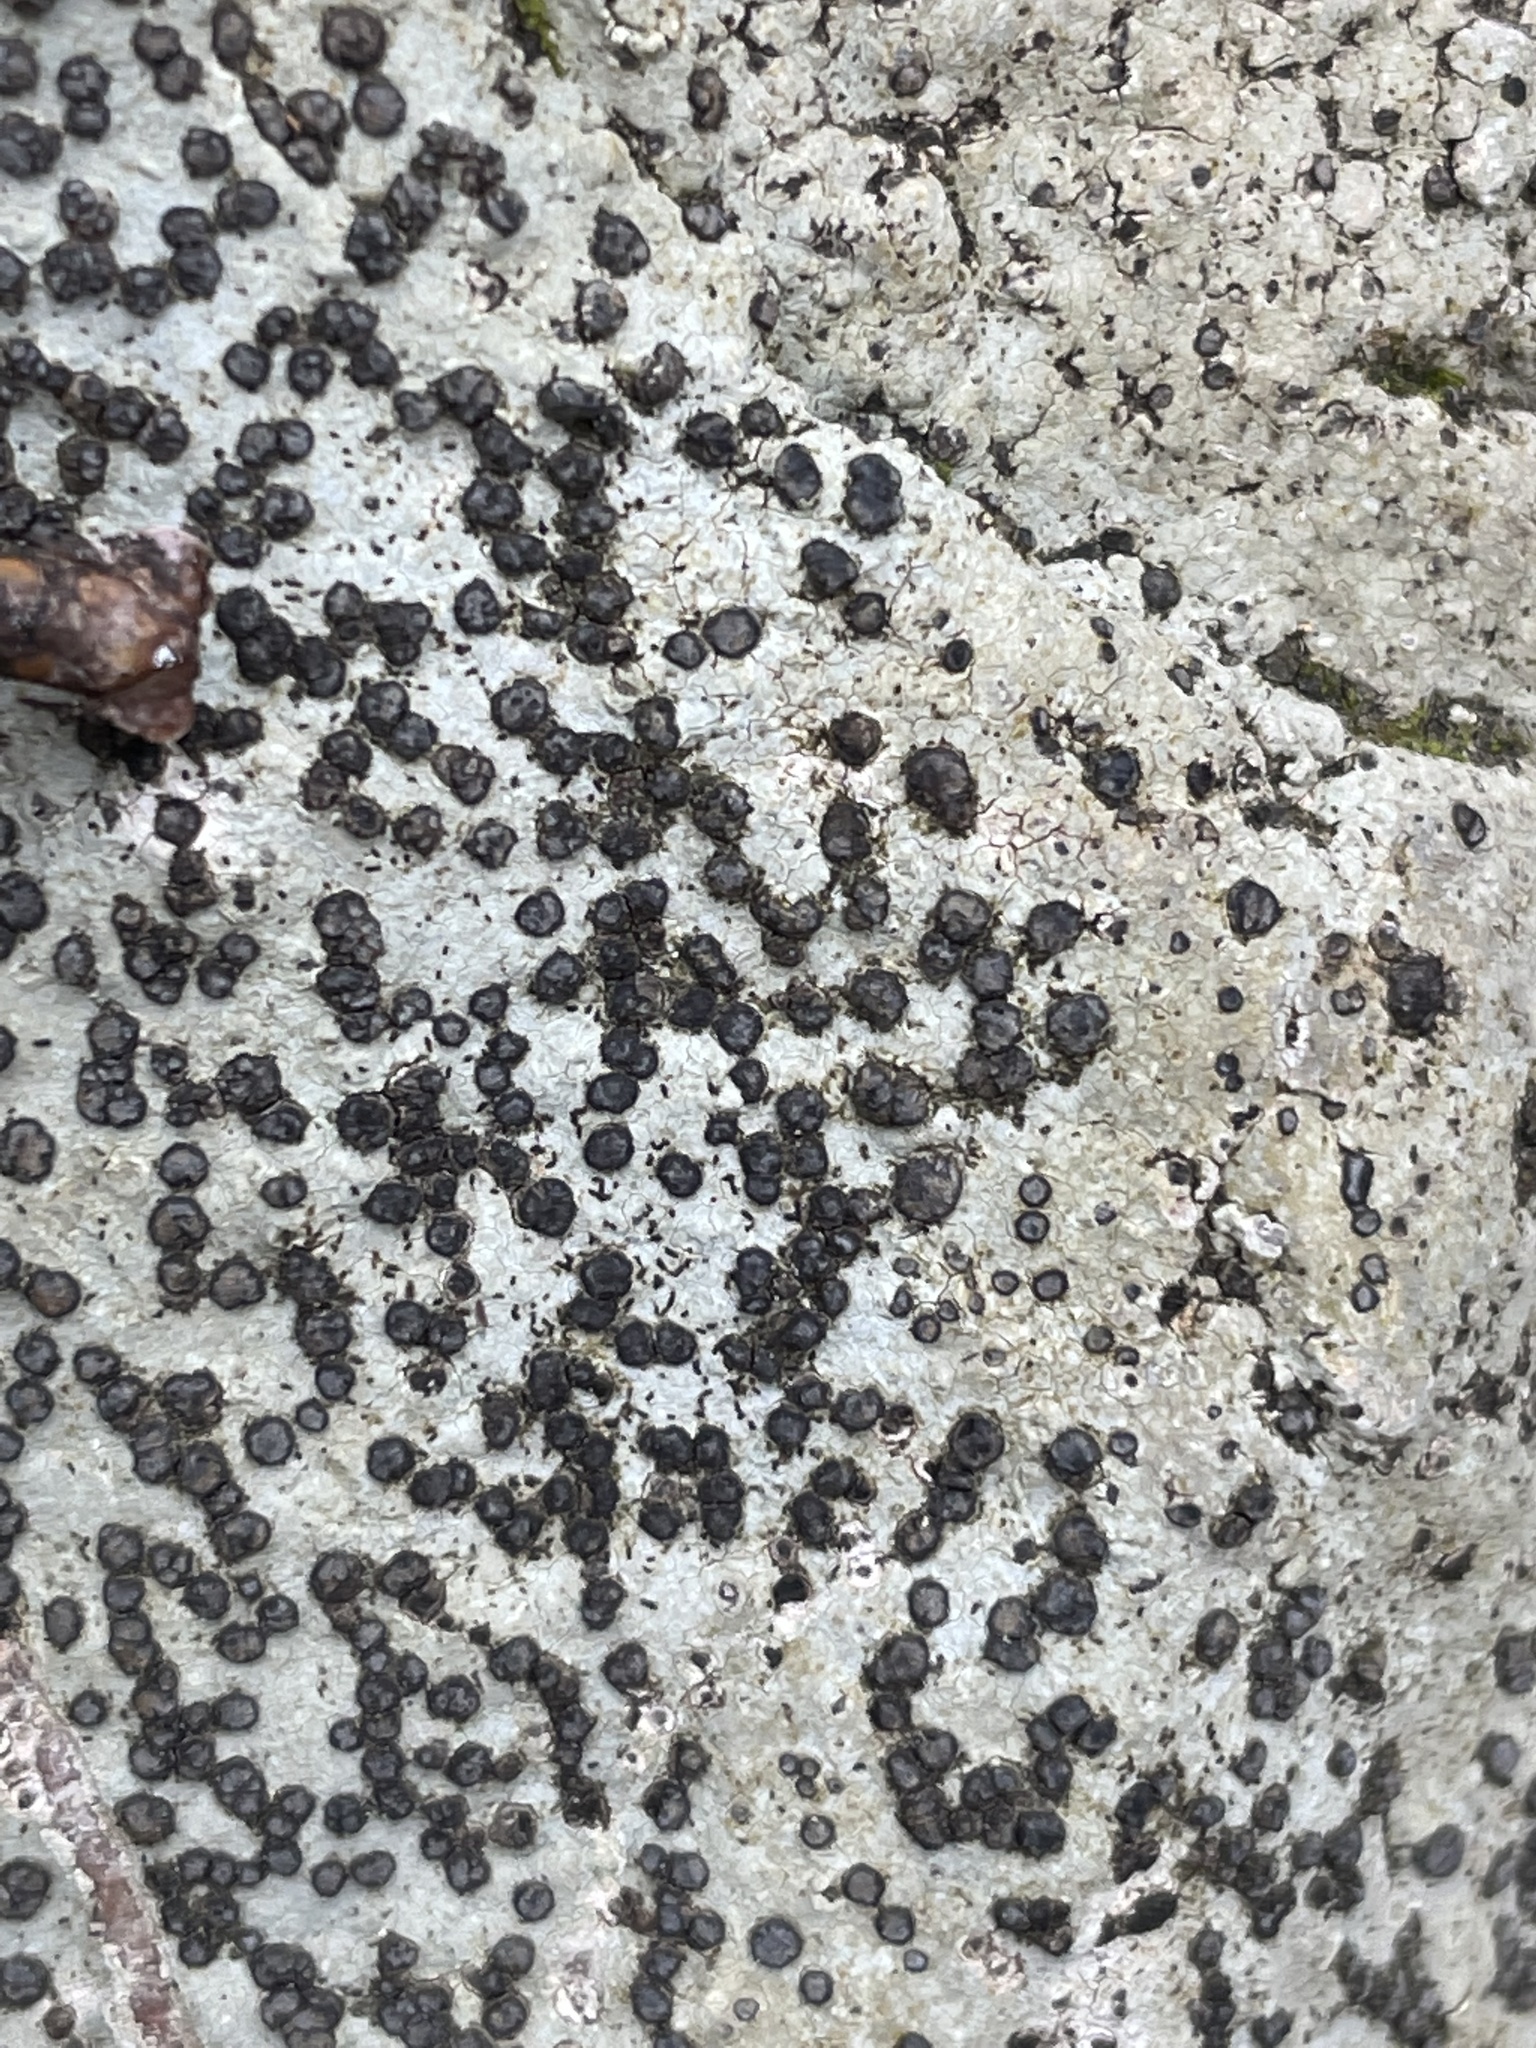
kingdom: Fungi
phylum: Ascomycota
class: Lecanoromycetes
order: Lecideales
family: Lecideaceae
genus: Porpidia
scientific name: Porpidia albocaerulescens
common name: Smokey-eyed boulder lichen
